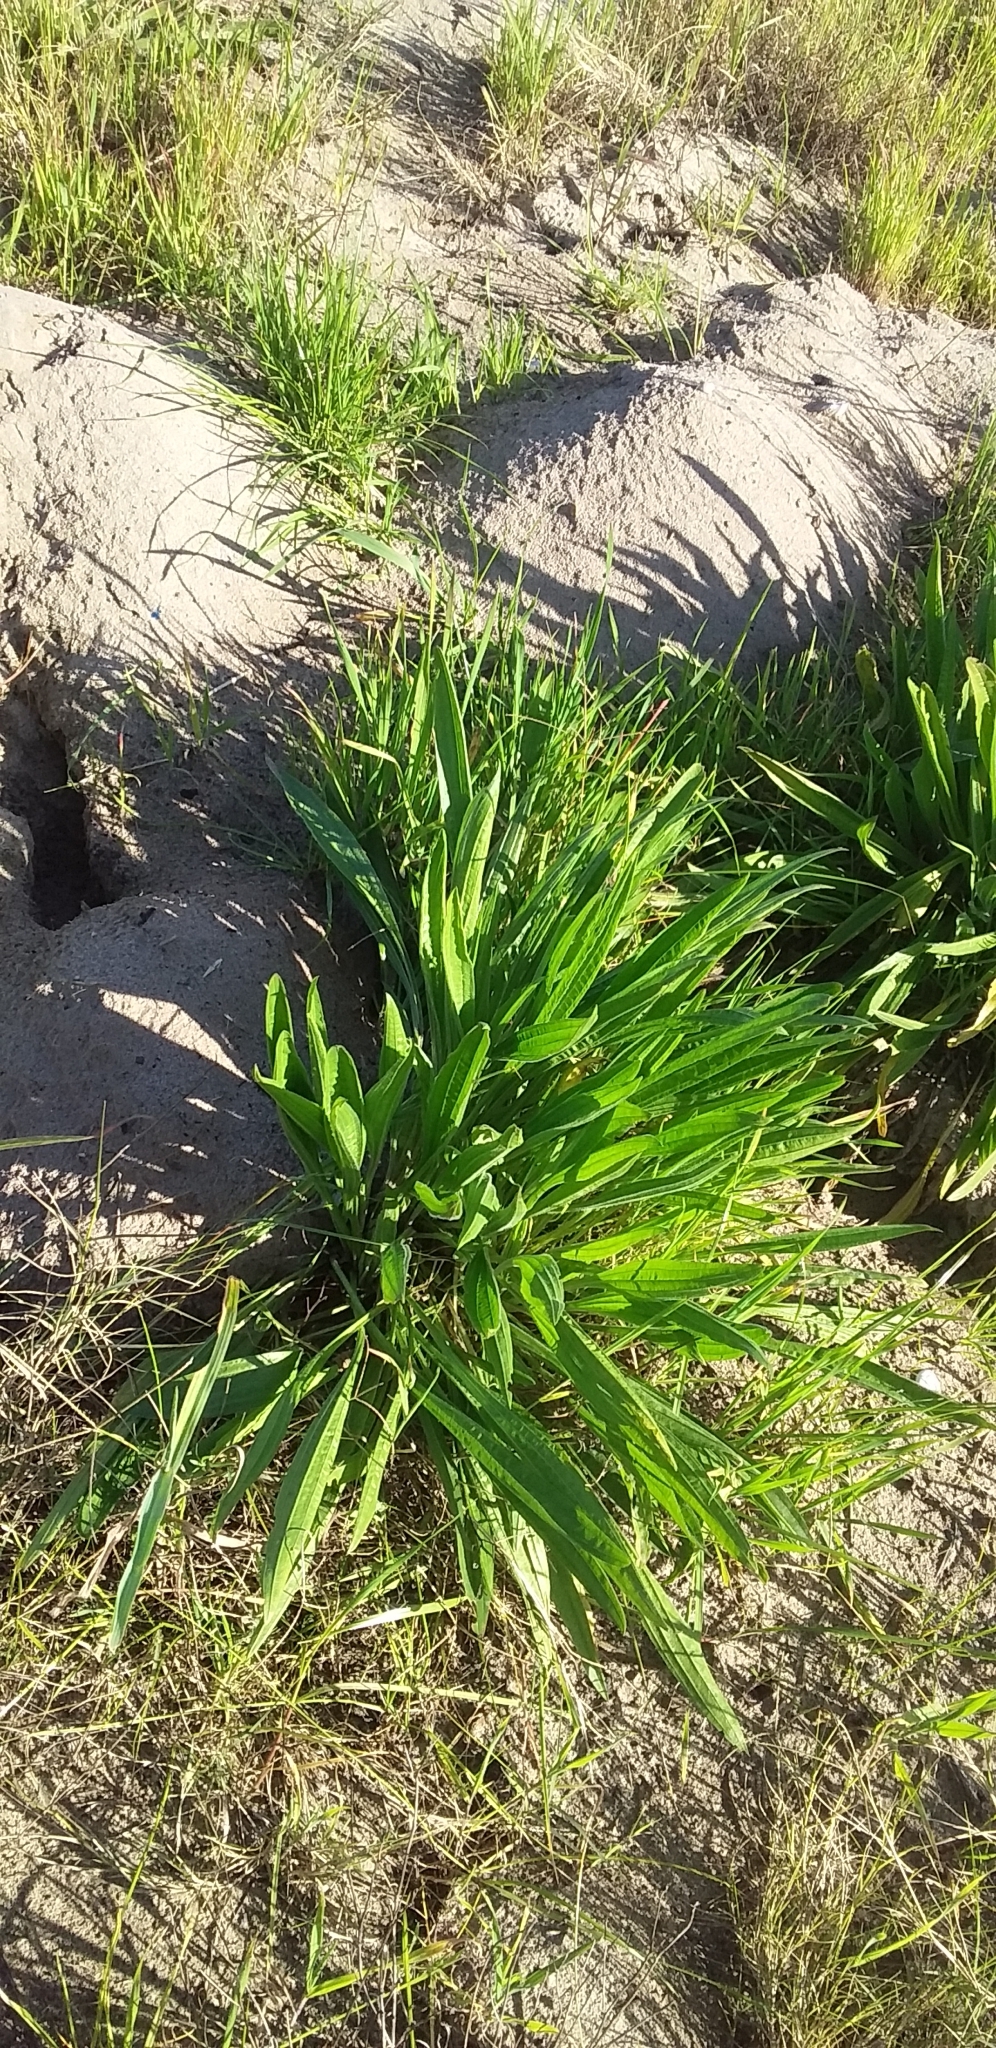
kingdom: Plantae
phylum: Tracheophyta
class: Magnoliopsida
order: Lamiales
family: Plantaginaceae
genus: Plantago
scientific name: Plantago lanceolata
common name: Ribwort plantain
